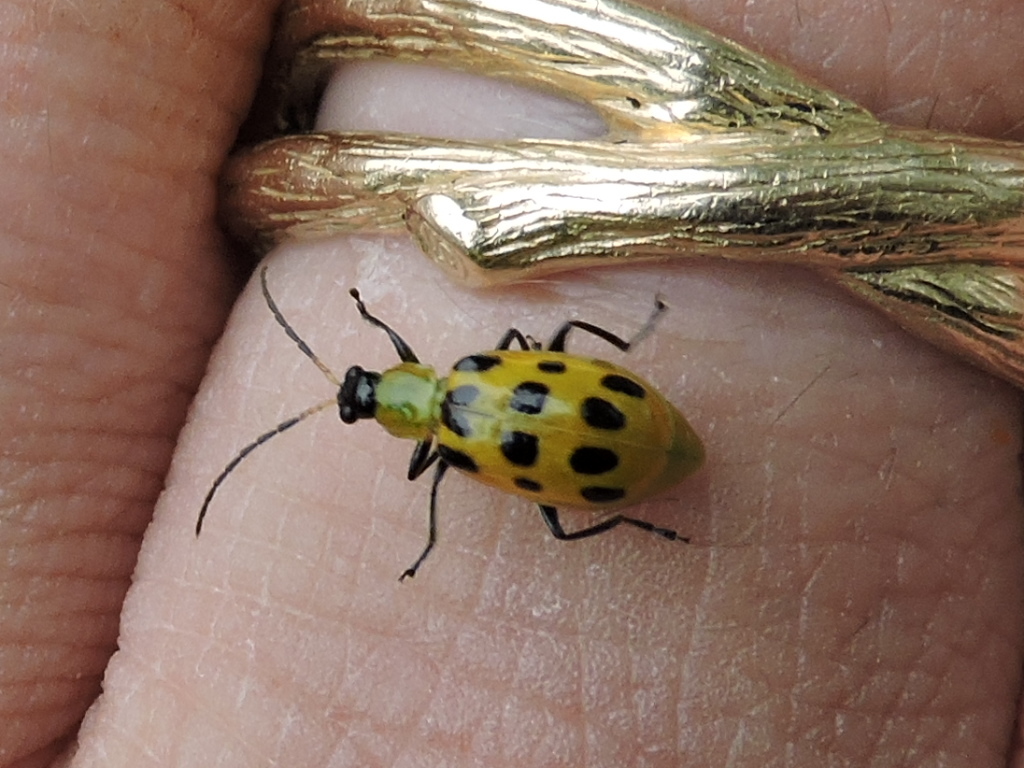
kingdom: Animalia
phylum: Arthropoda
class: Insecta
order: Coleoptera
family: Chrysomelidae
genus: Diabrotica
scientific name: Diabrotica undecimpunctata
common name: Spotted cucumber beetle
